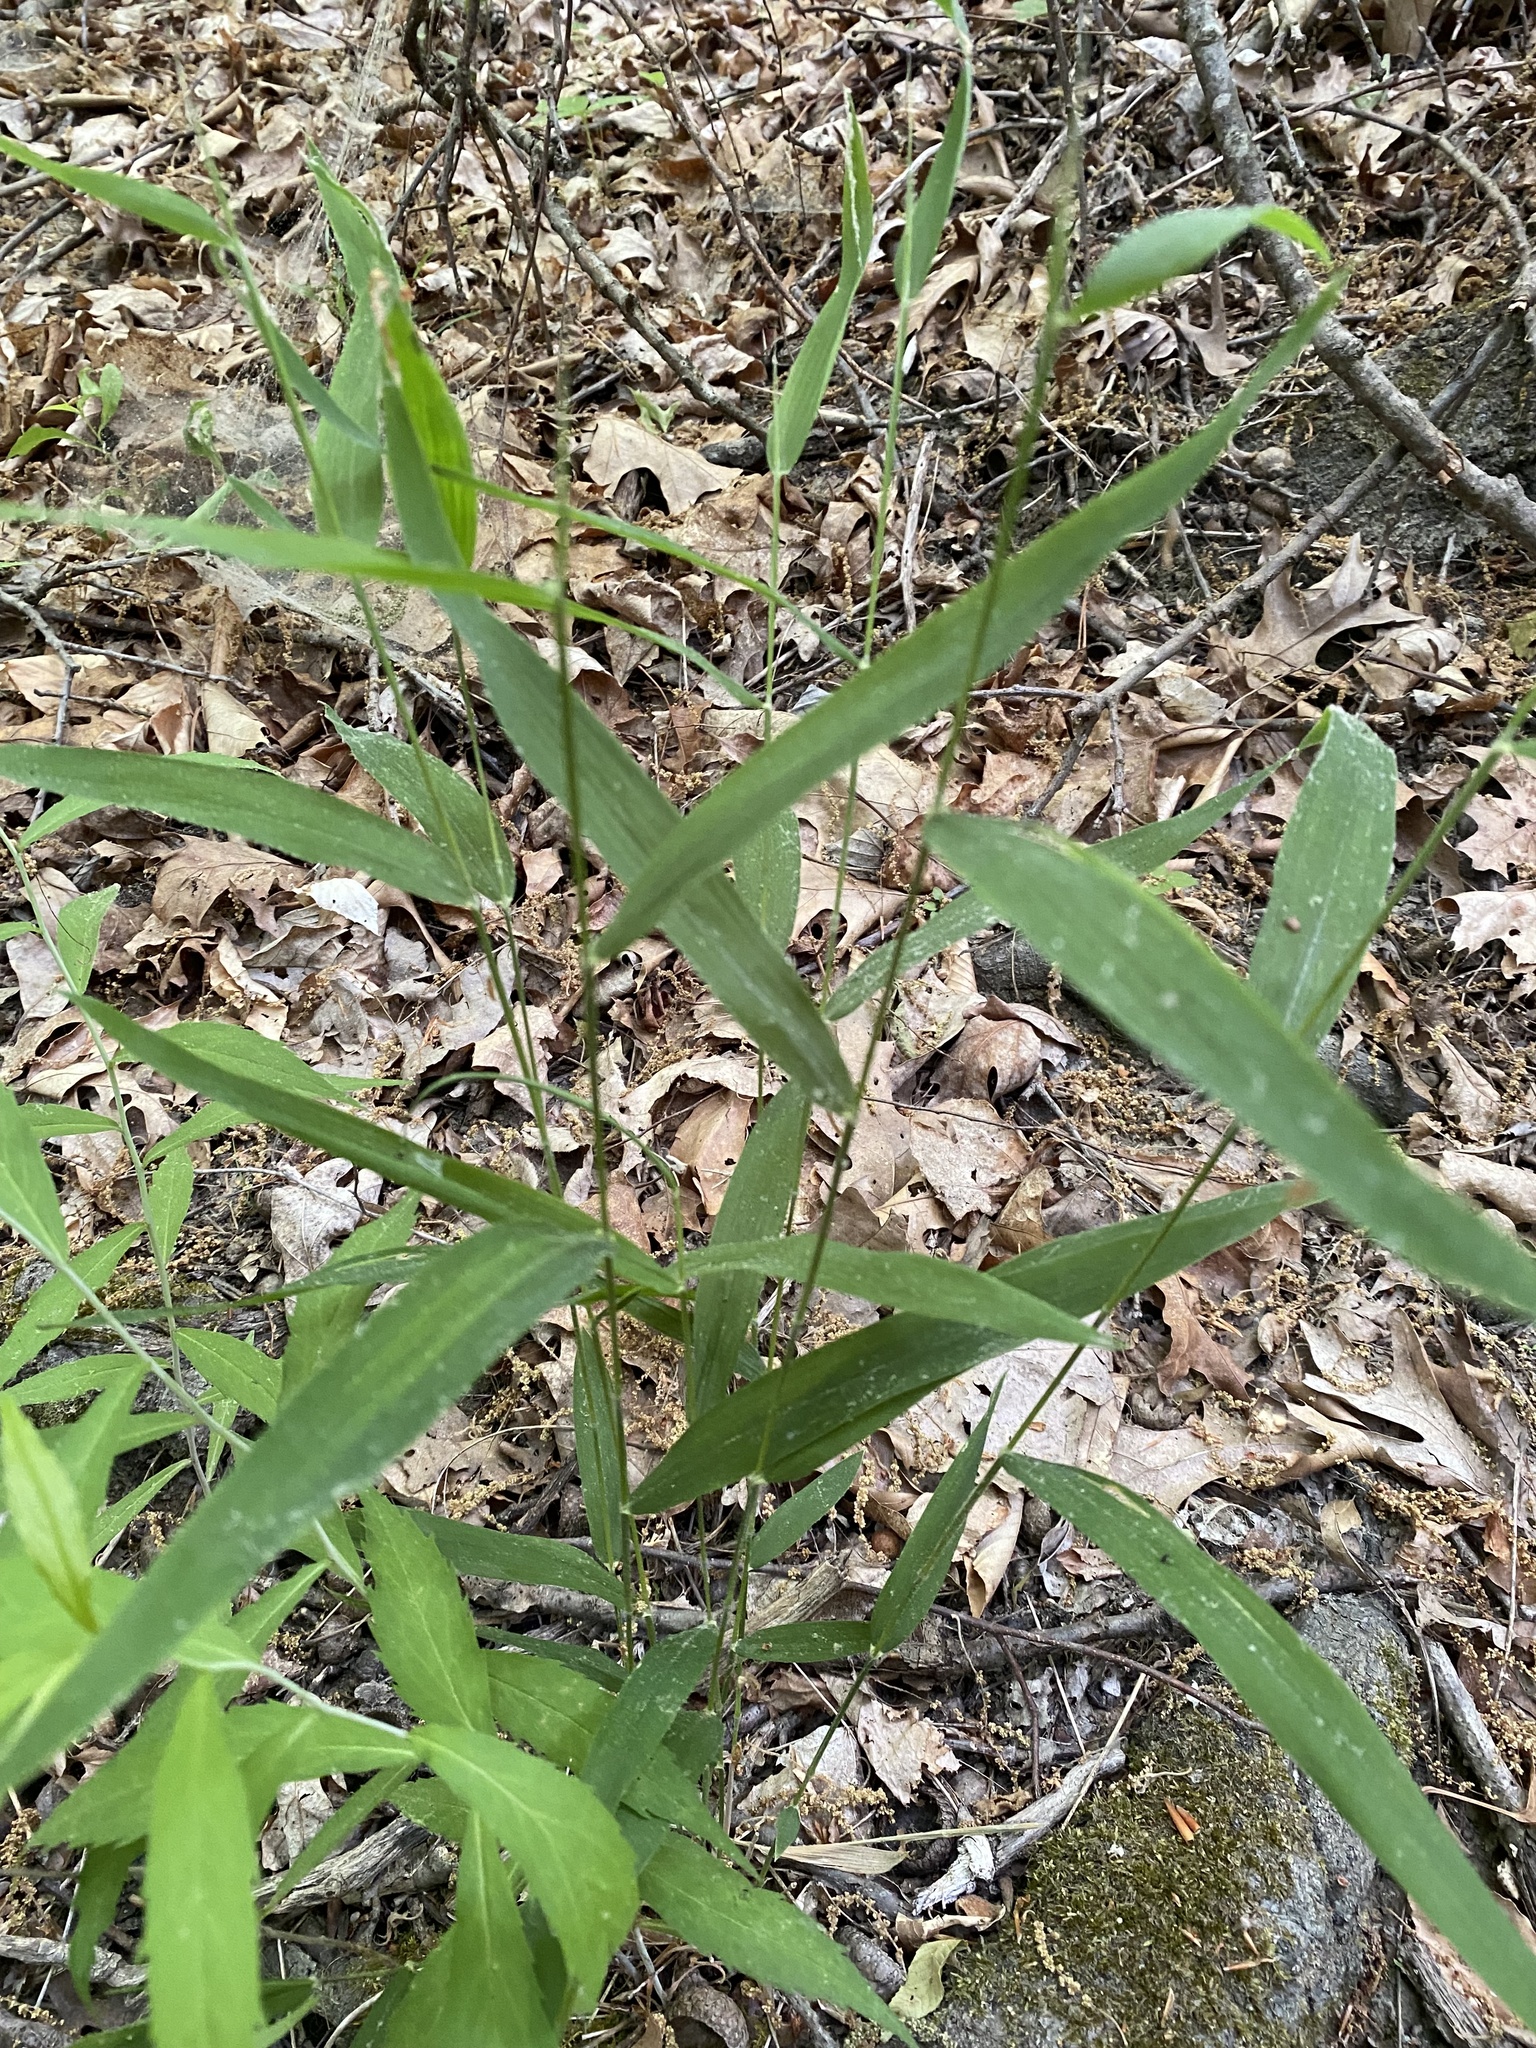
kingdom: Plantae
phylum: Tracheophyta
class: Liliopsida
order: Poales
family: Poaceae
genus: Brachyelytrum
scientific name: Brachyelytrum erectum
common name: Bearded shorthusk
